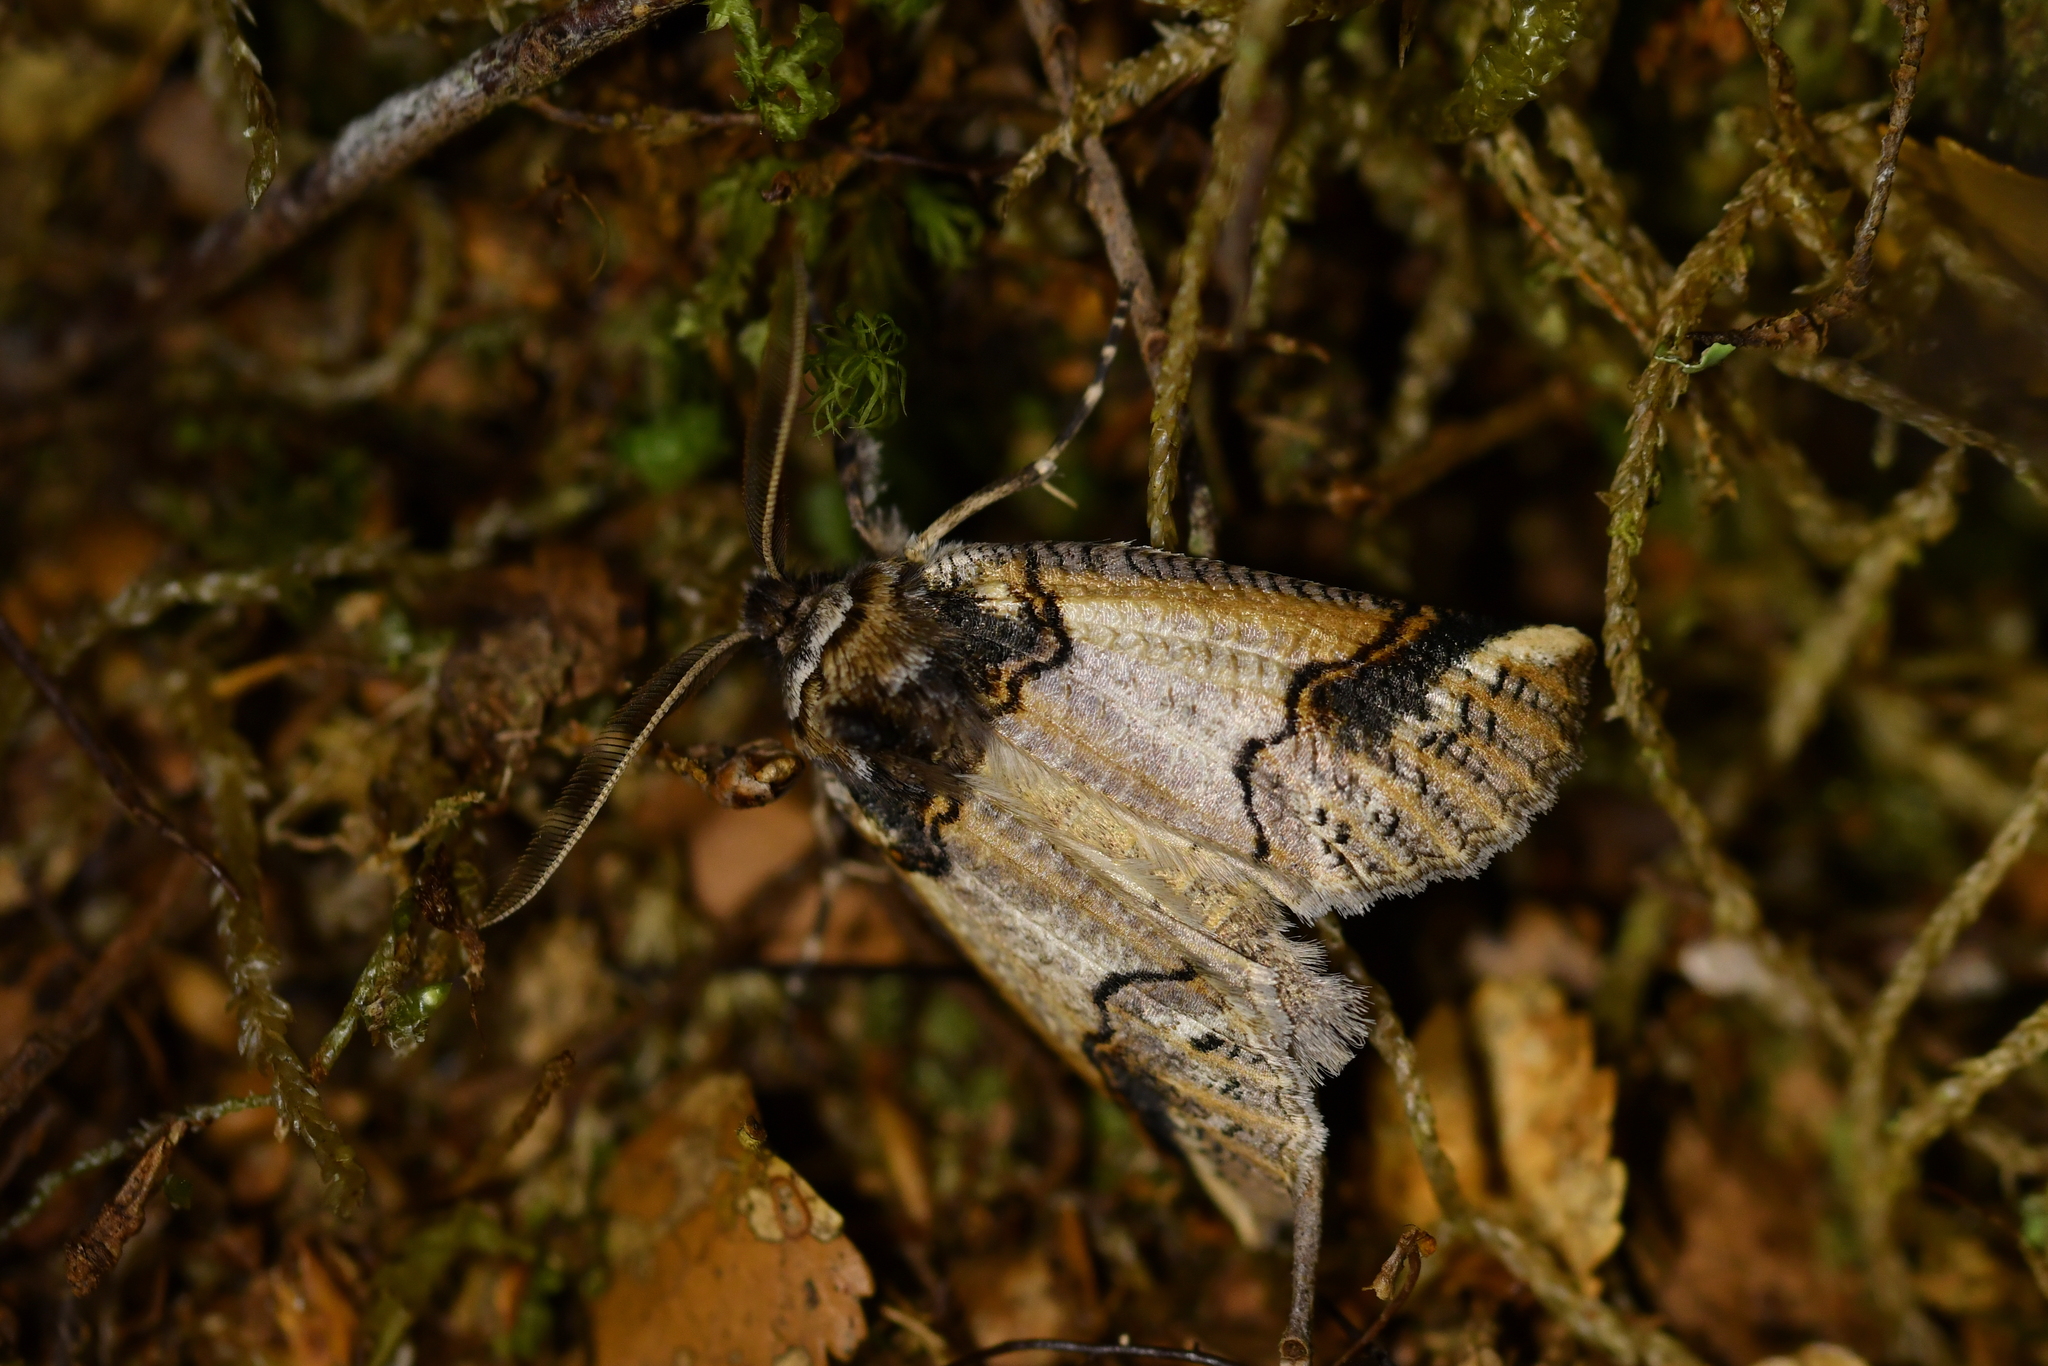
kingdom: Animalia
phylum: Arthropoda
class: Insecta
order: Lepidoptera
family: Geometridae
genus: Declana
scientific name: Declana
